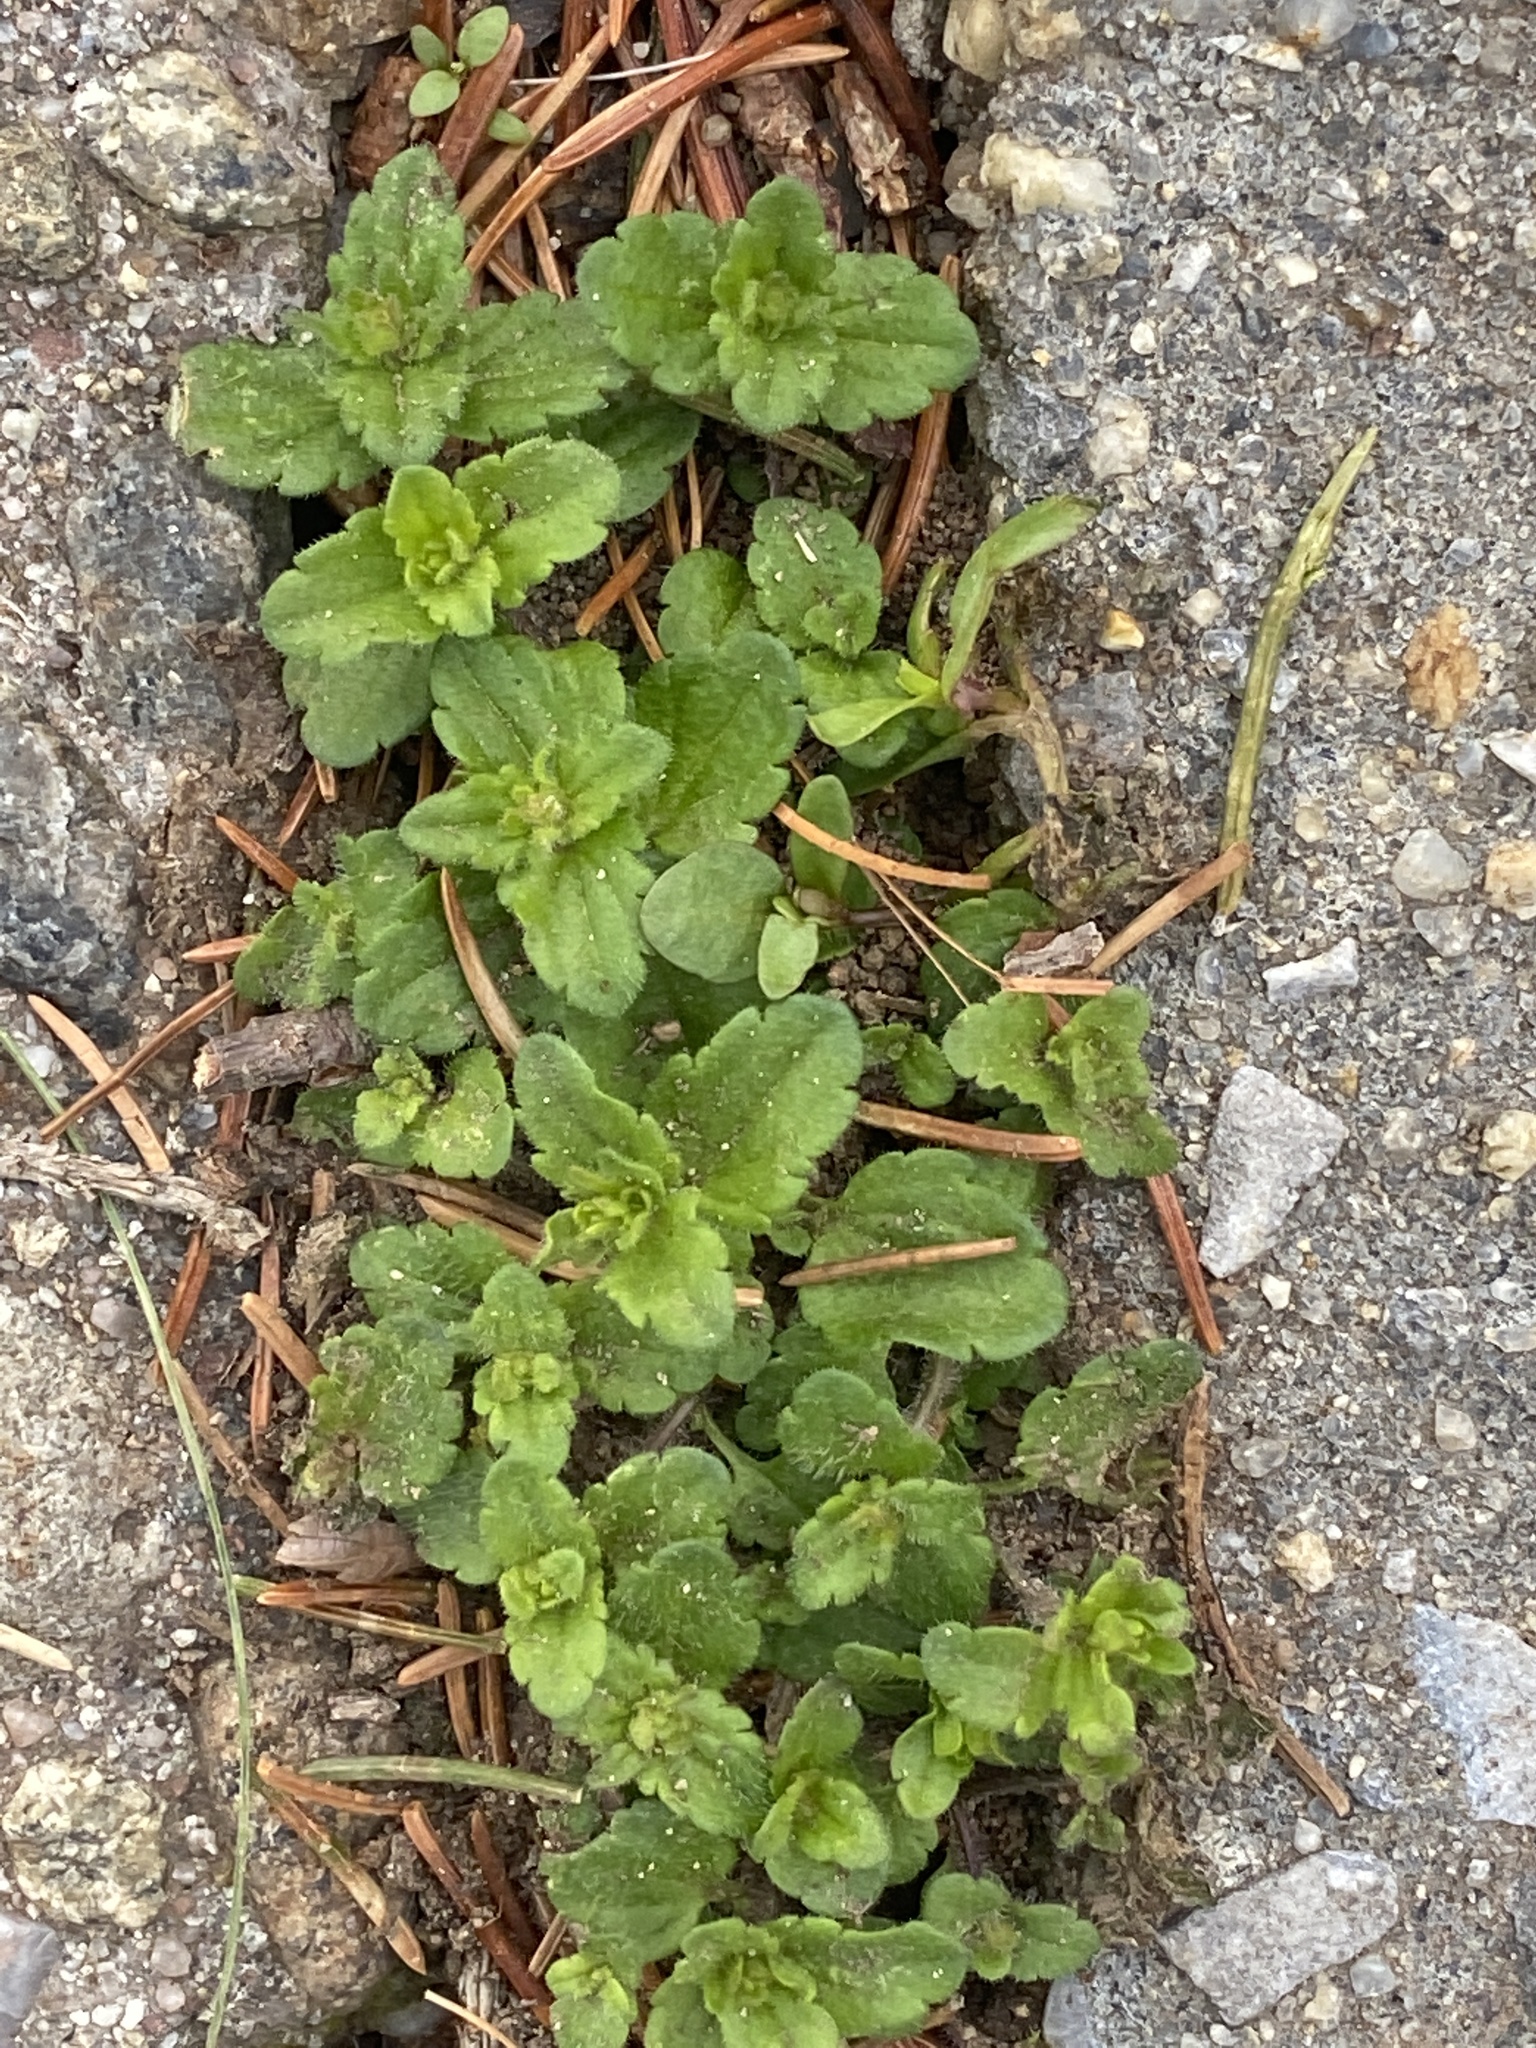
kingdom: Plantae
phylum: Tracheophyta
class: Magnoliopsida
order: Lamiales
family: Plantaginaceae
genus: Veronica
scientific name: Veronica arvensis
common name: Corn speedwell
